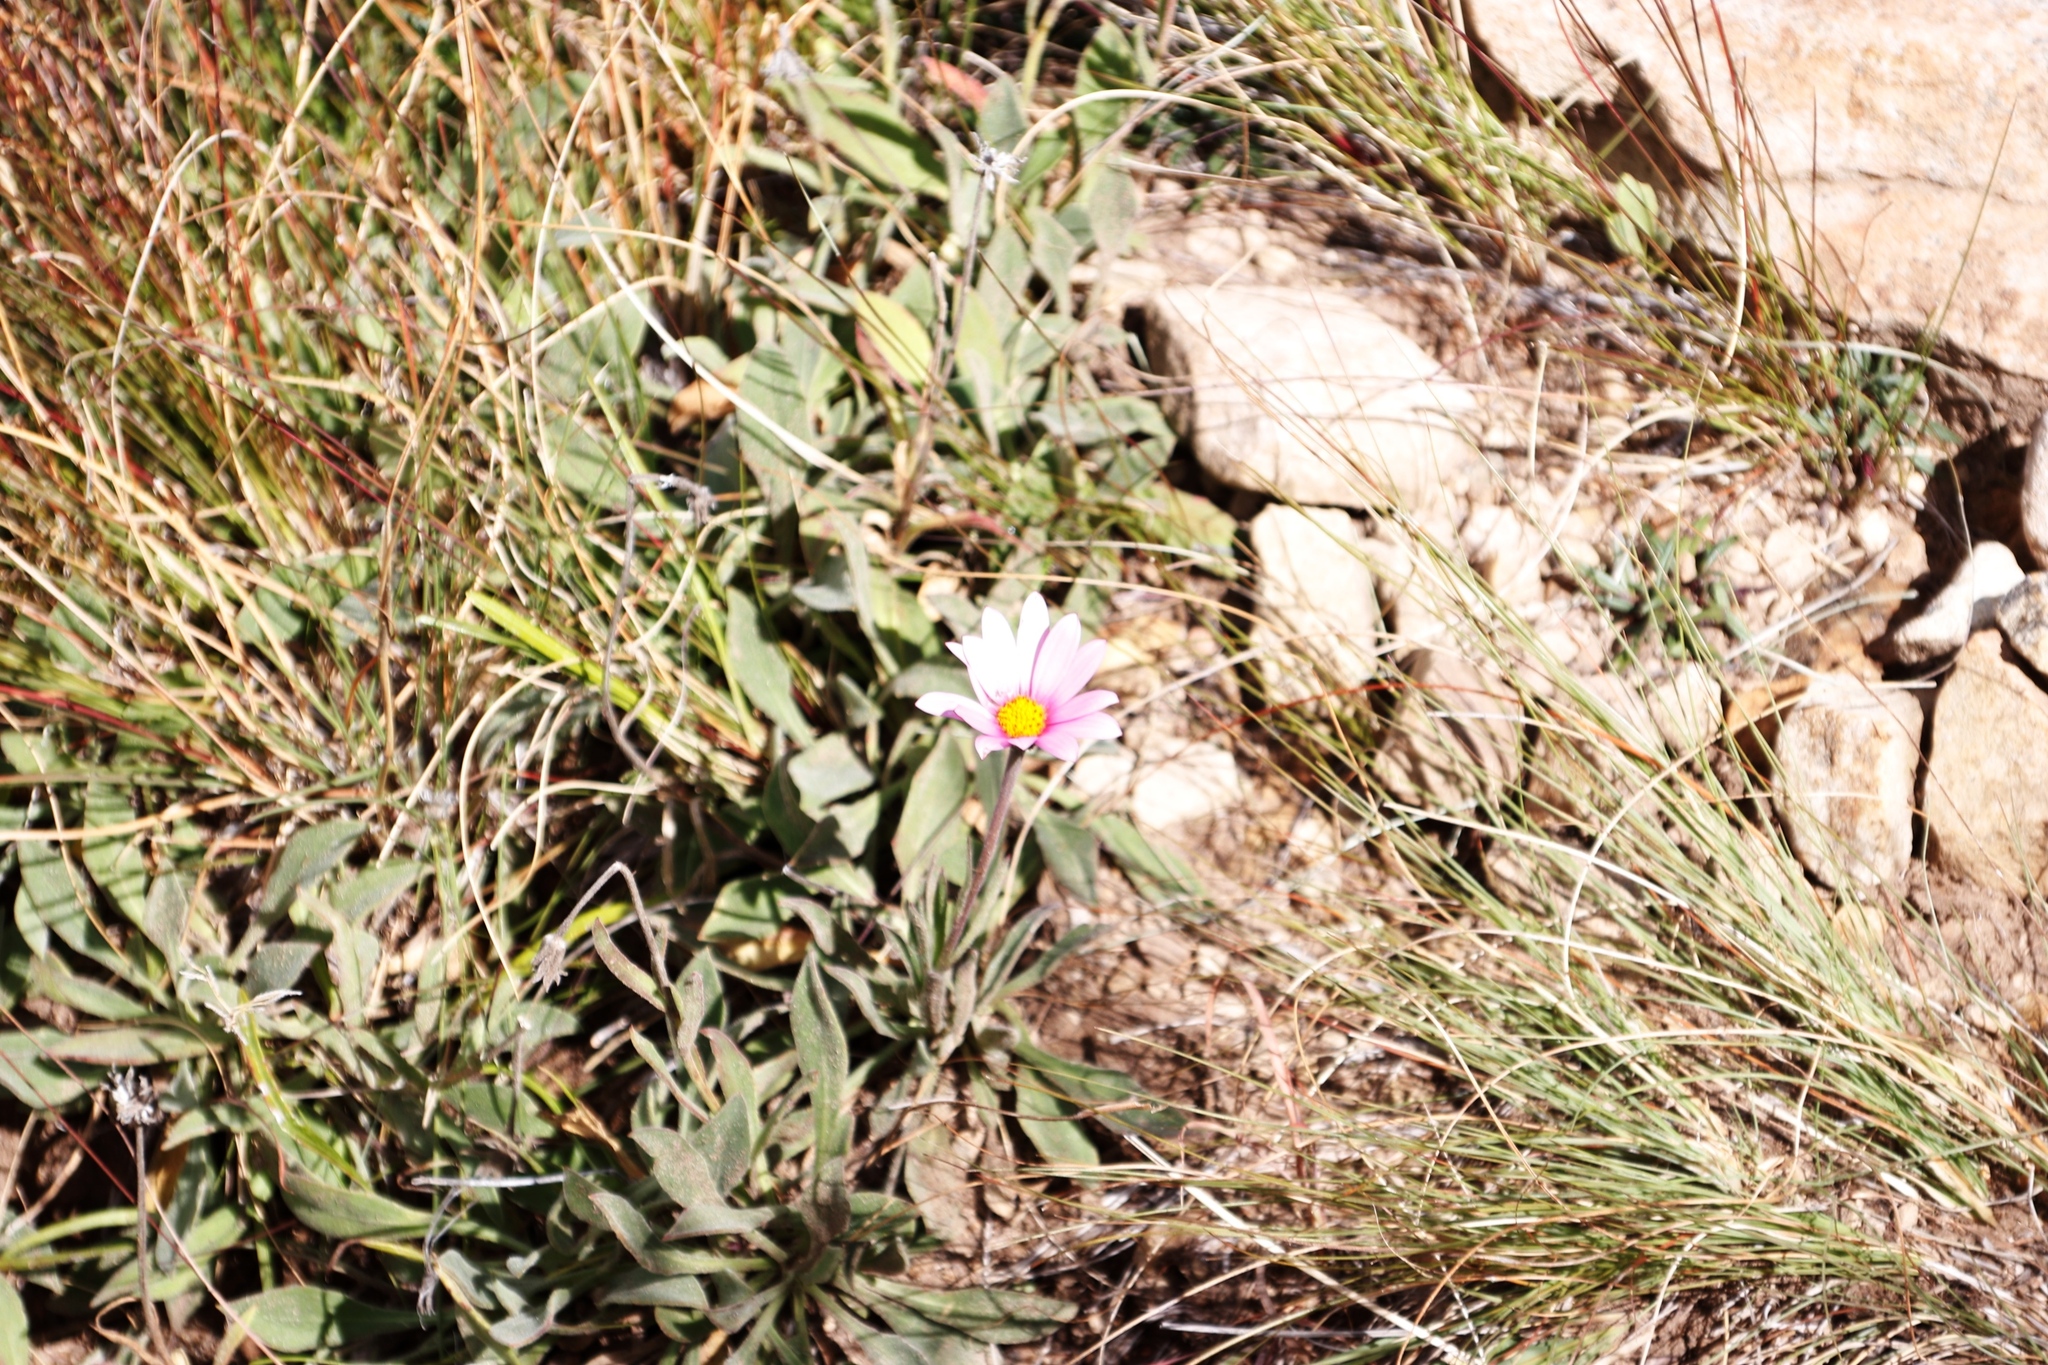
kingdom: Plantae
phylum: Tracheophyta
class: Magnoliopsida
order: Asterales
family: Asteraceae
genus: Dimorphotheca
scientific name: Dimorphotheca jucunda
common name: Osteospermum
